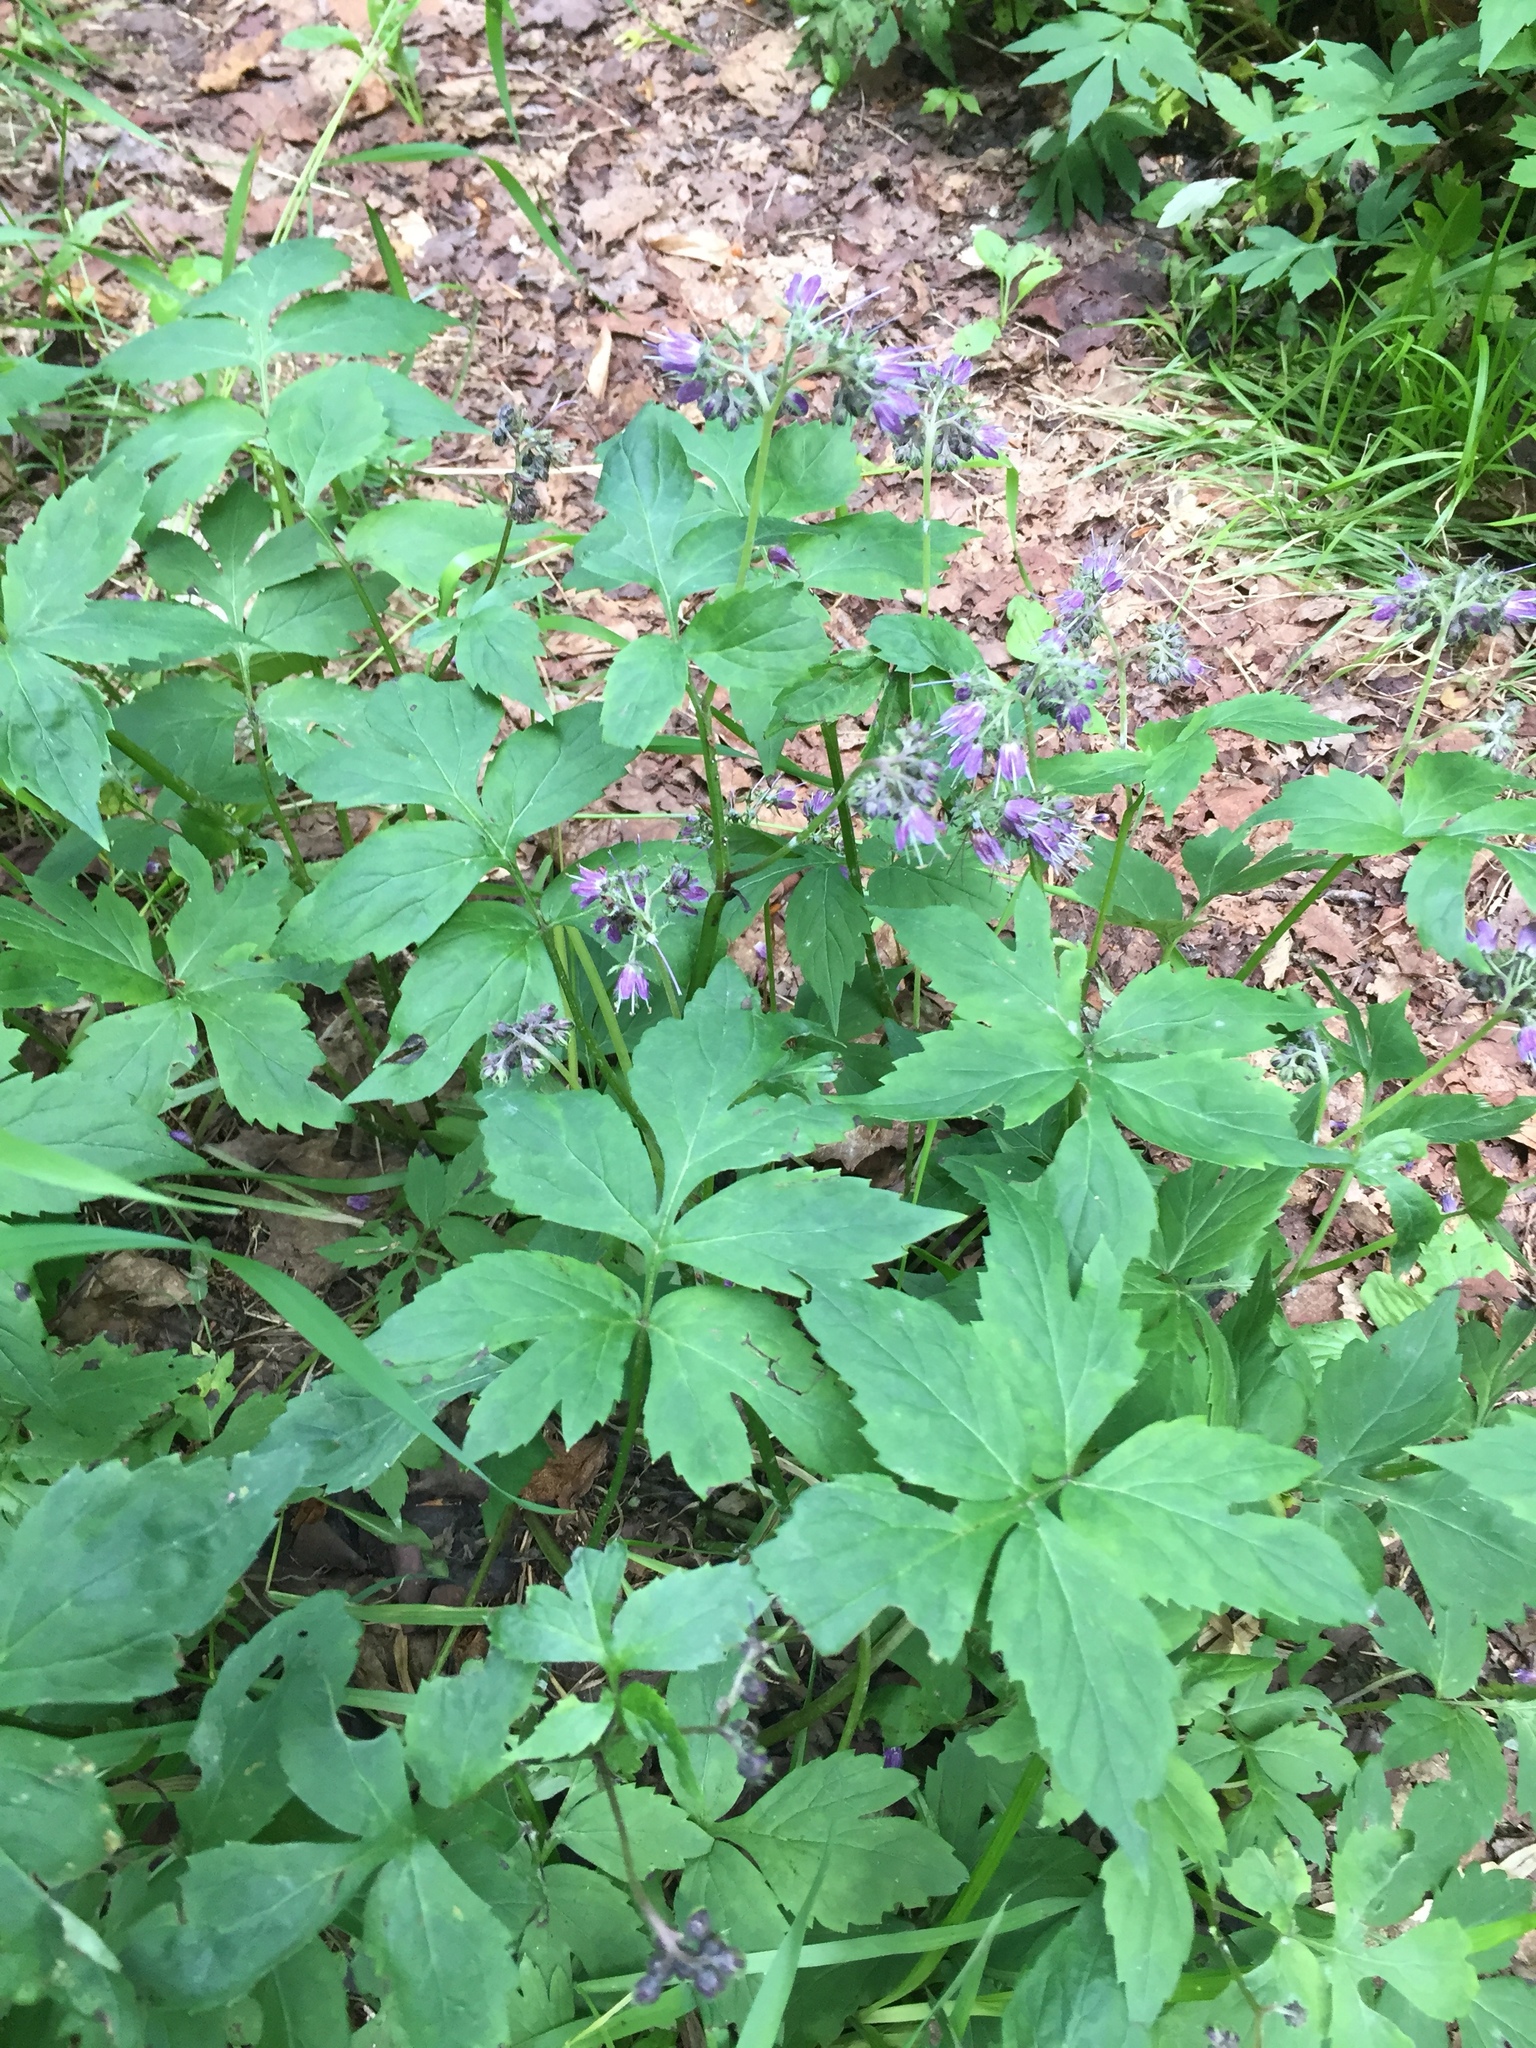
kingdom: Plantae
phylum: Tracheophyta
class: Magnoliopsida
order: Boraginales
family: Hydrophyllaceae
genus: Hydrophyllum
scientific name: Hydrophyllum virginianum
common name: Virginia waterleaf
